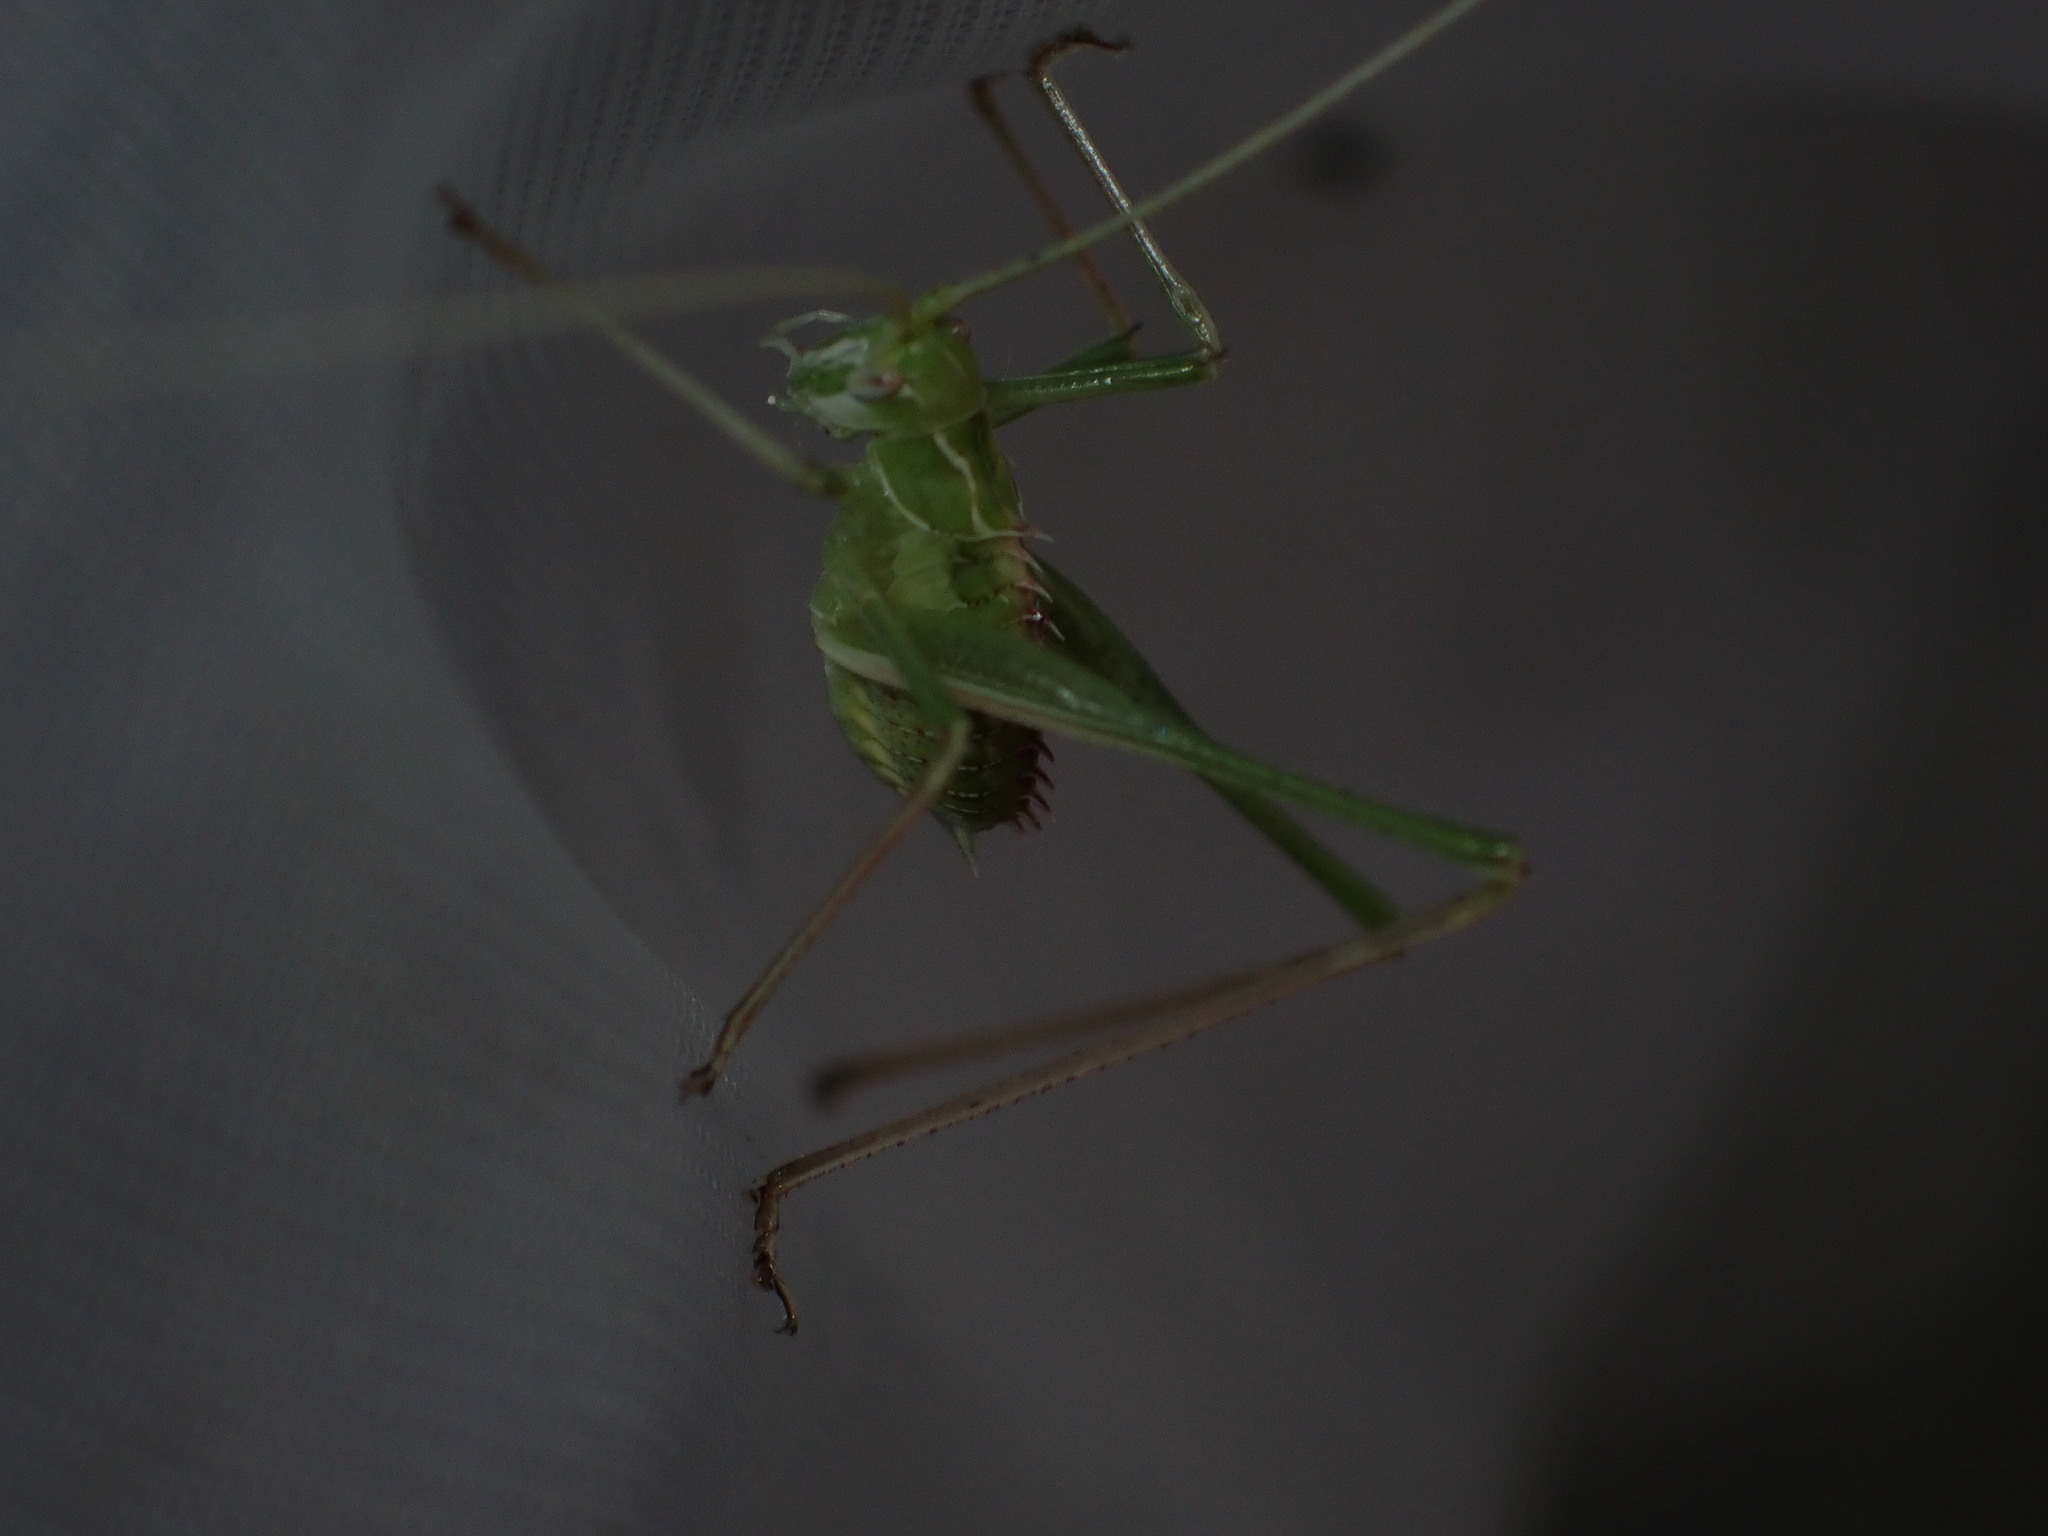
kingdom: Animalia
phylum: Arthropoda
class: Insecta
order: Orthoptera
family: Tettigoniidae
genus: Tylopsis
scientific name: Tylopsis lilifolia
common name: Lily bush-cricket
